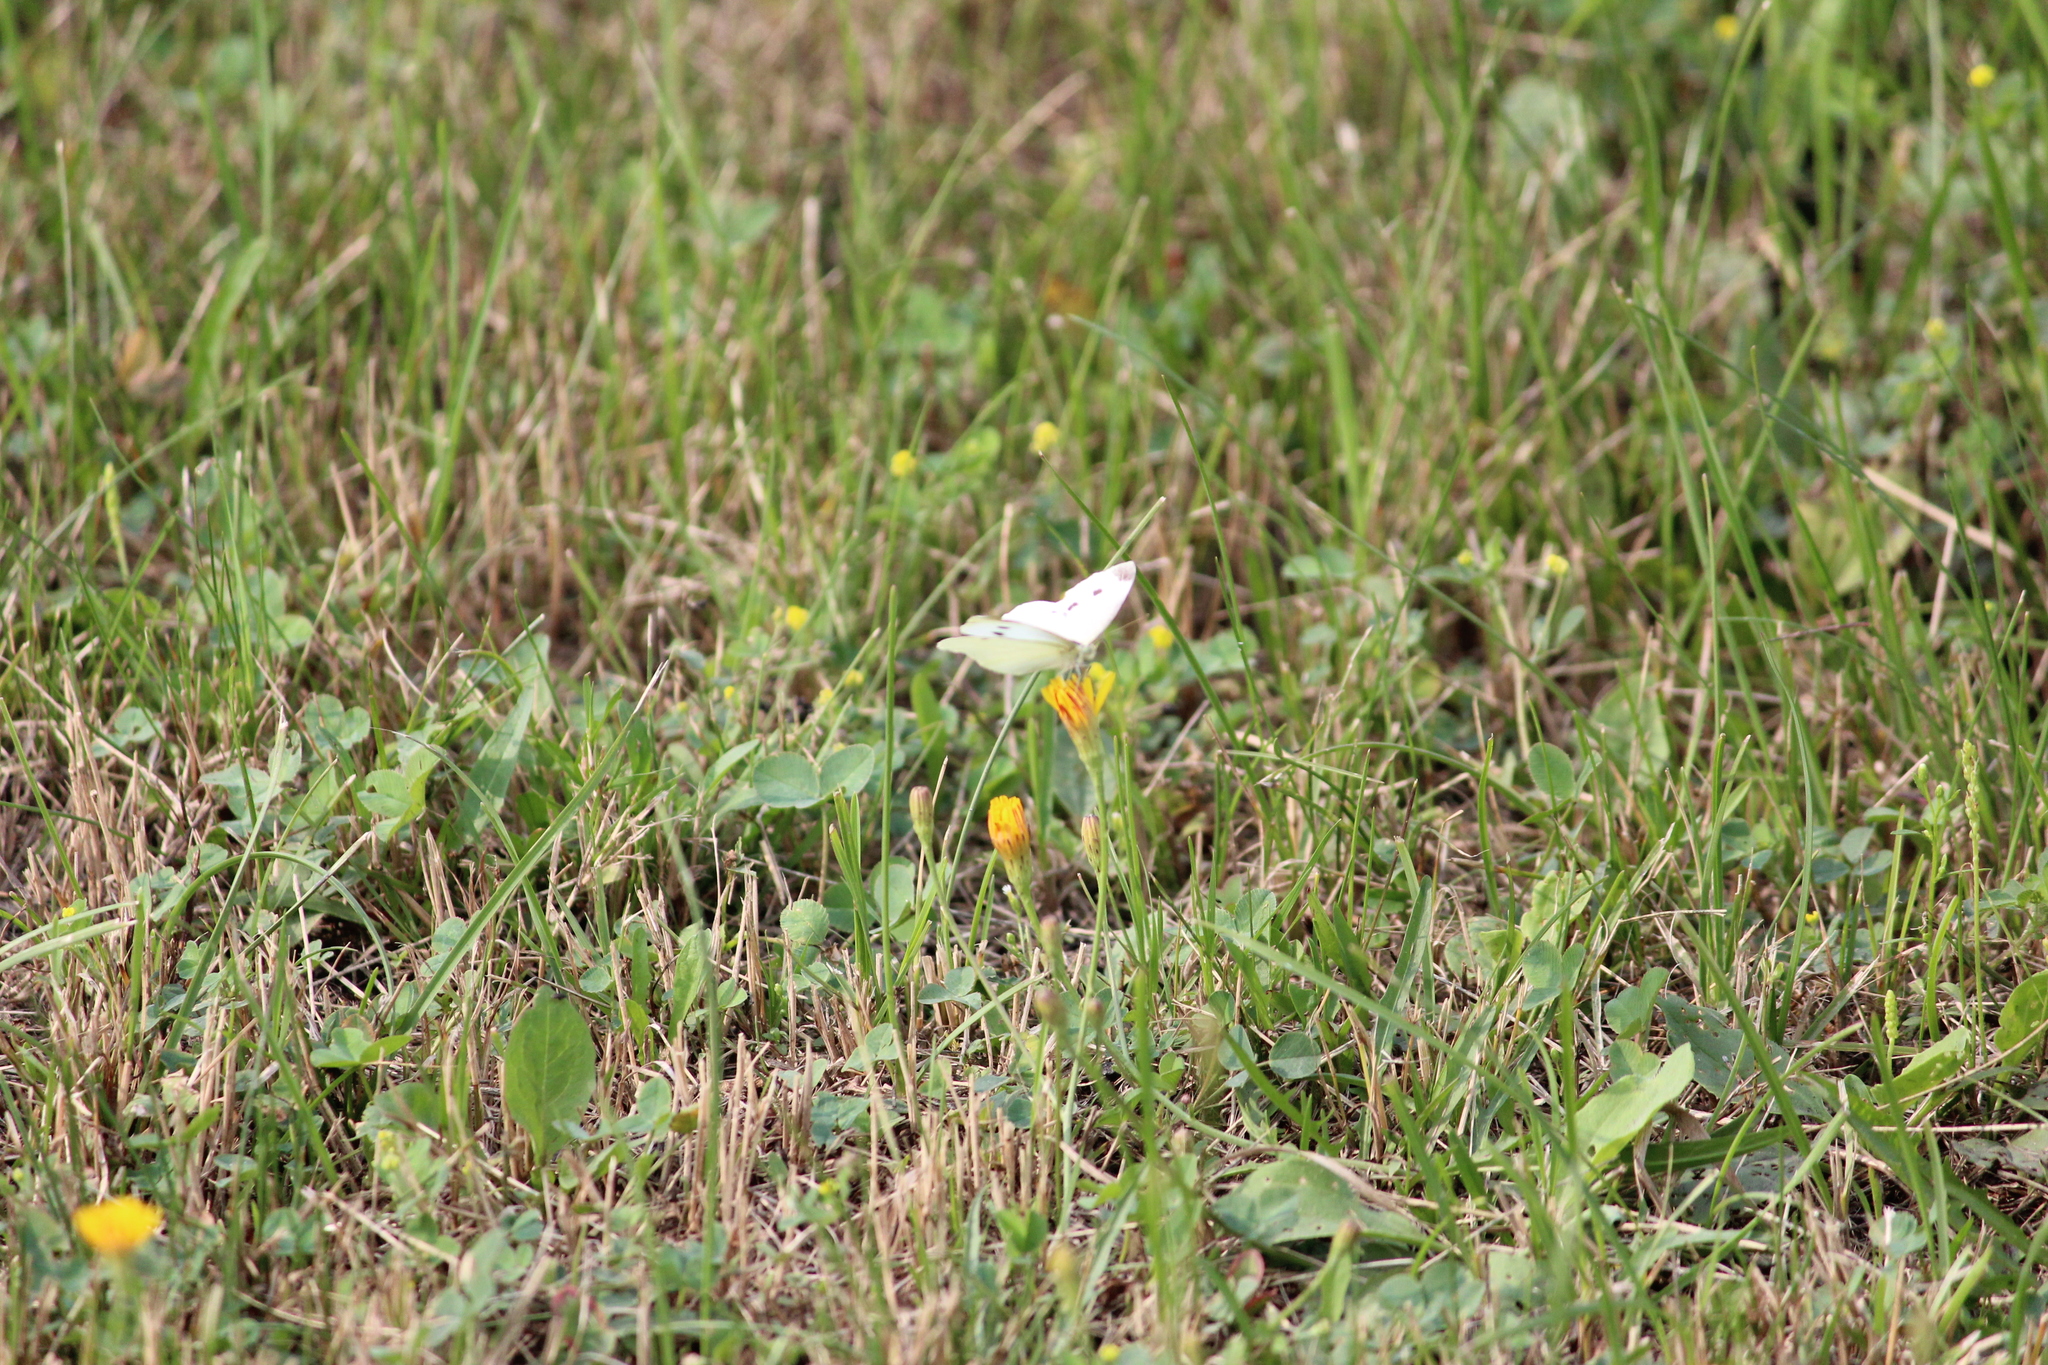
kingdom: Animalia
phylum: Arthropoda
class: Insecta
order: Lepidoptera
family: Pieridae
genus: Pieris
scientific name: Pieris rapae
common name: Small white
